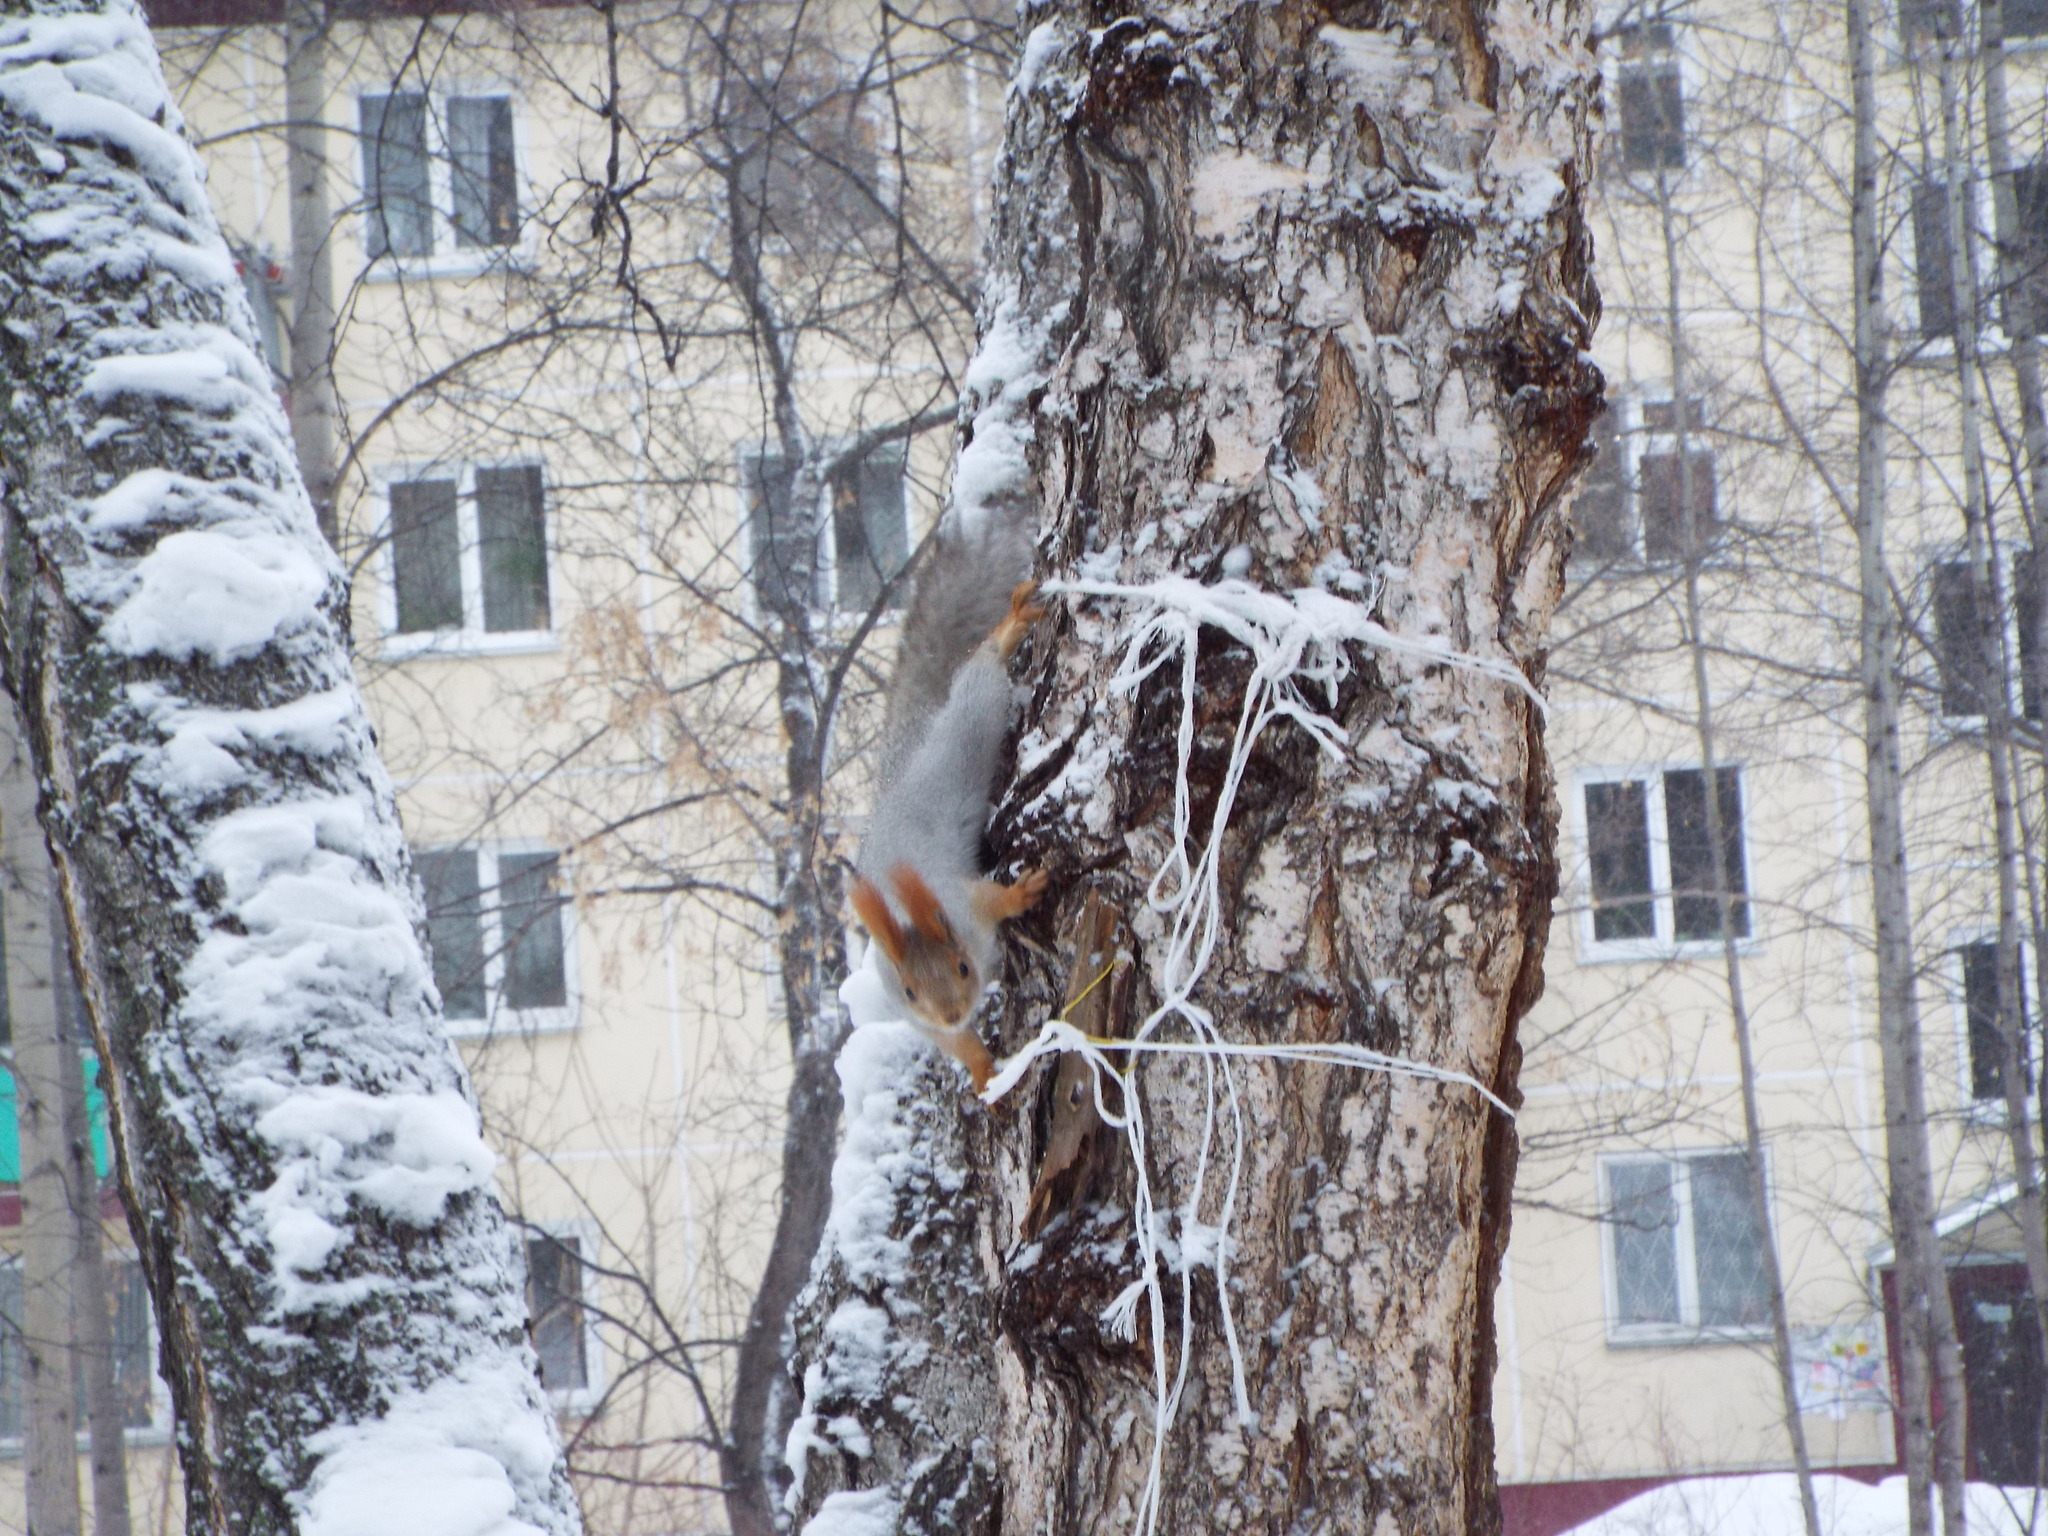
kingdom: Animalia
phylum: Chordata
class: Mammalia
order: Rodentia
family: Sciuridae
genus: Sciurus
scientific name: Sciurus vulgaris
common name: Eurasian red squirrel
